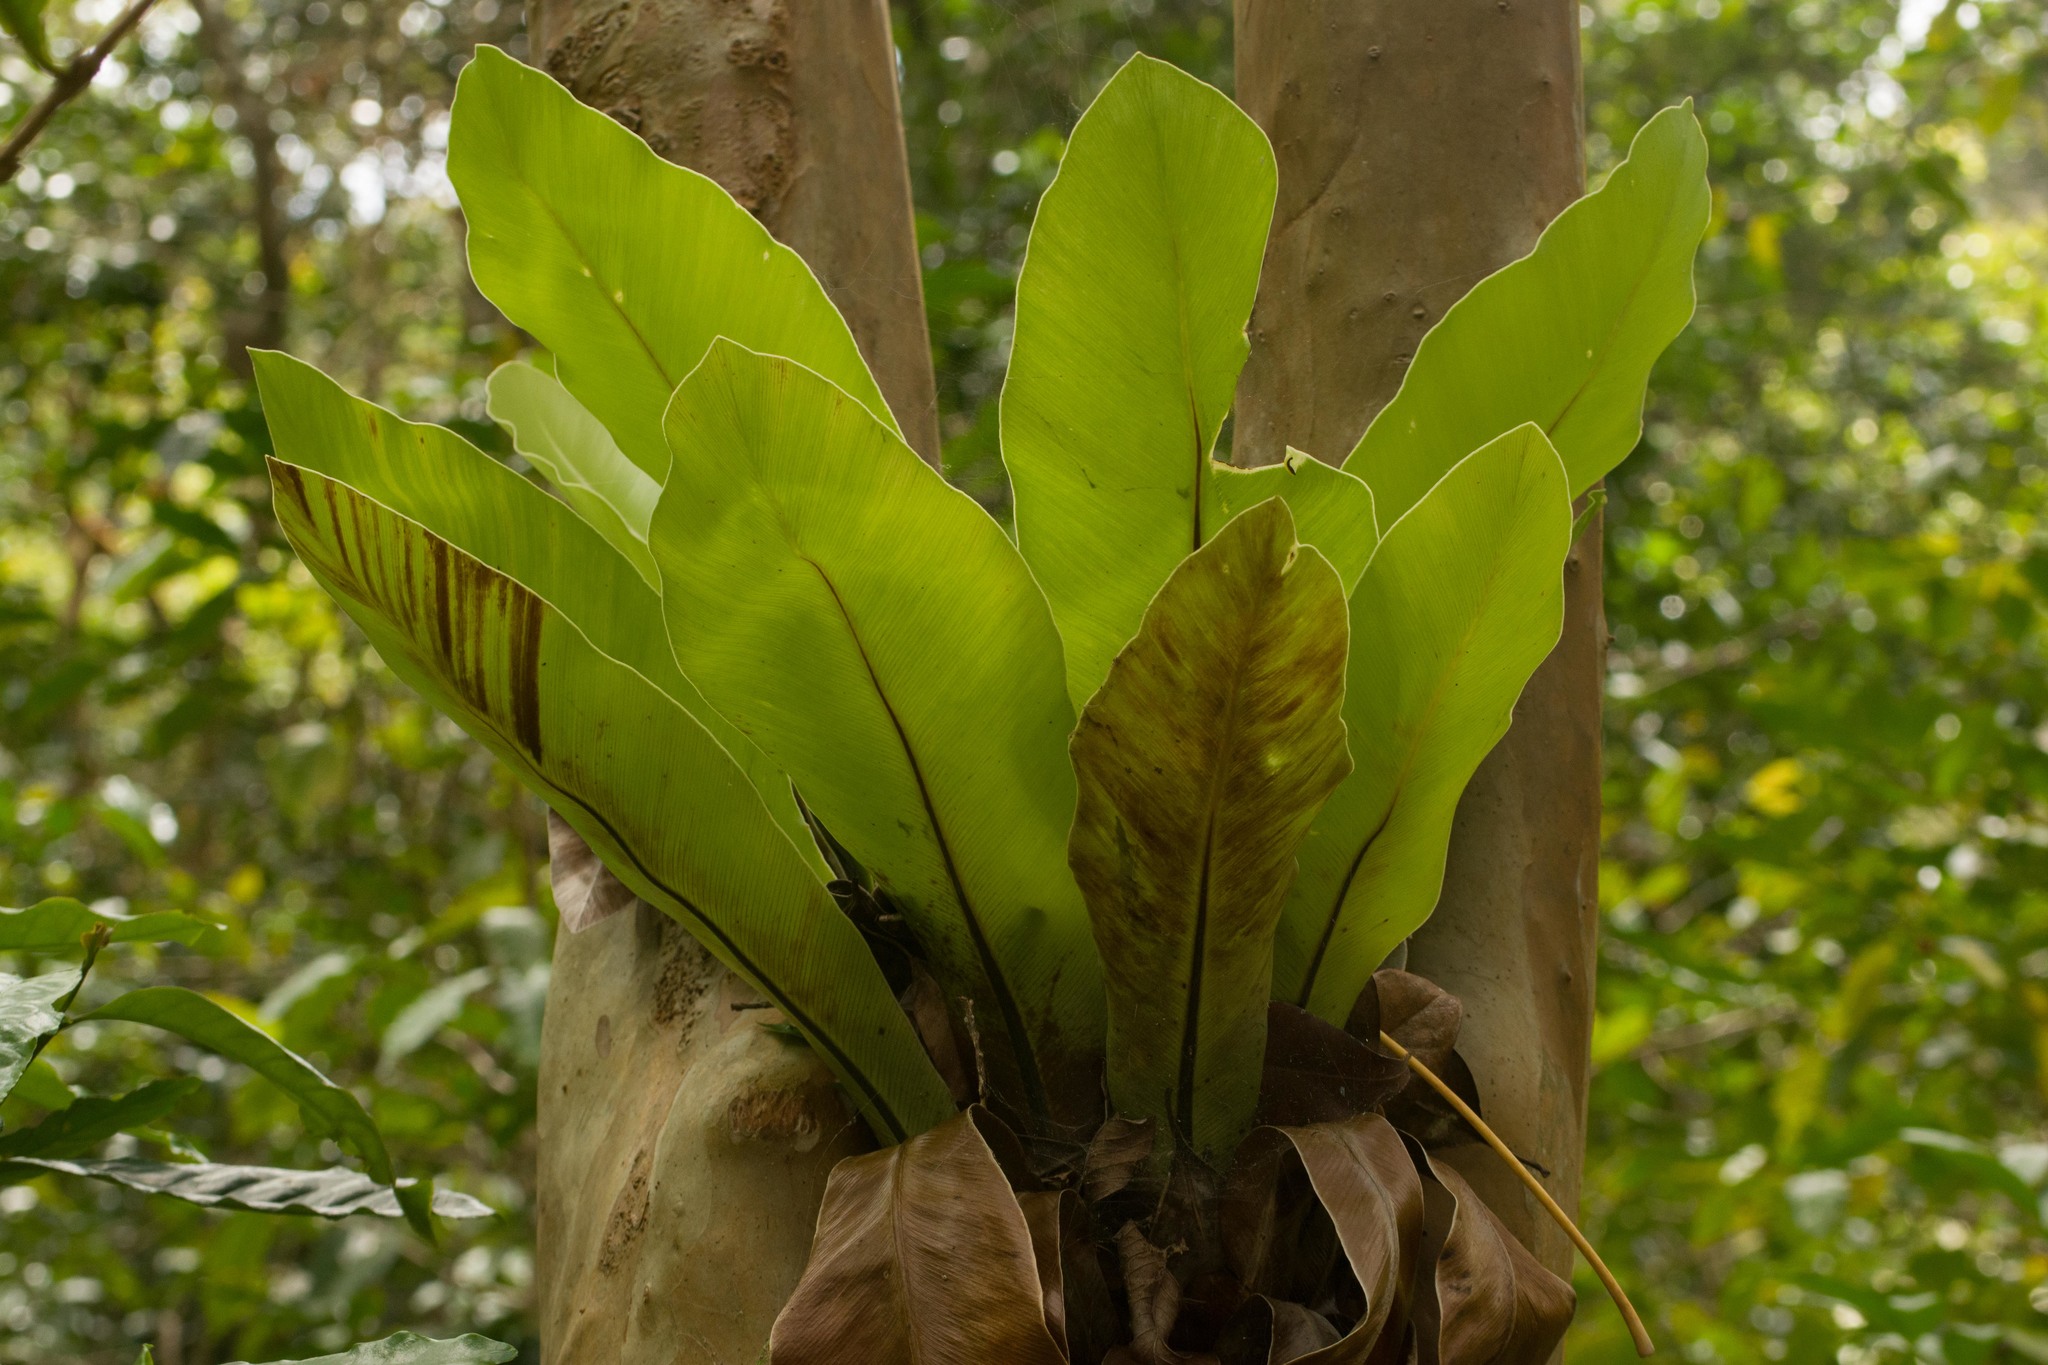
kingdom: Plantae
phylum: Tracheophyta
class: Polypodiopsida
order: Polypodiales
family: Aspleniaceae
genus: Asplenium
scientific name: Asplenium nidus
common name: Bird's-nest fern
